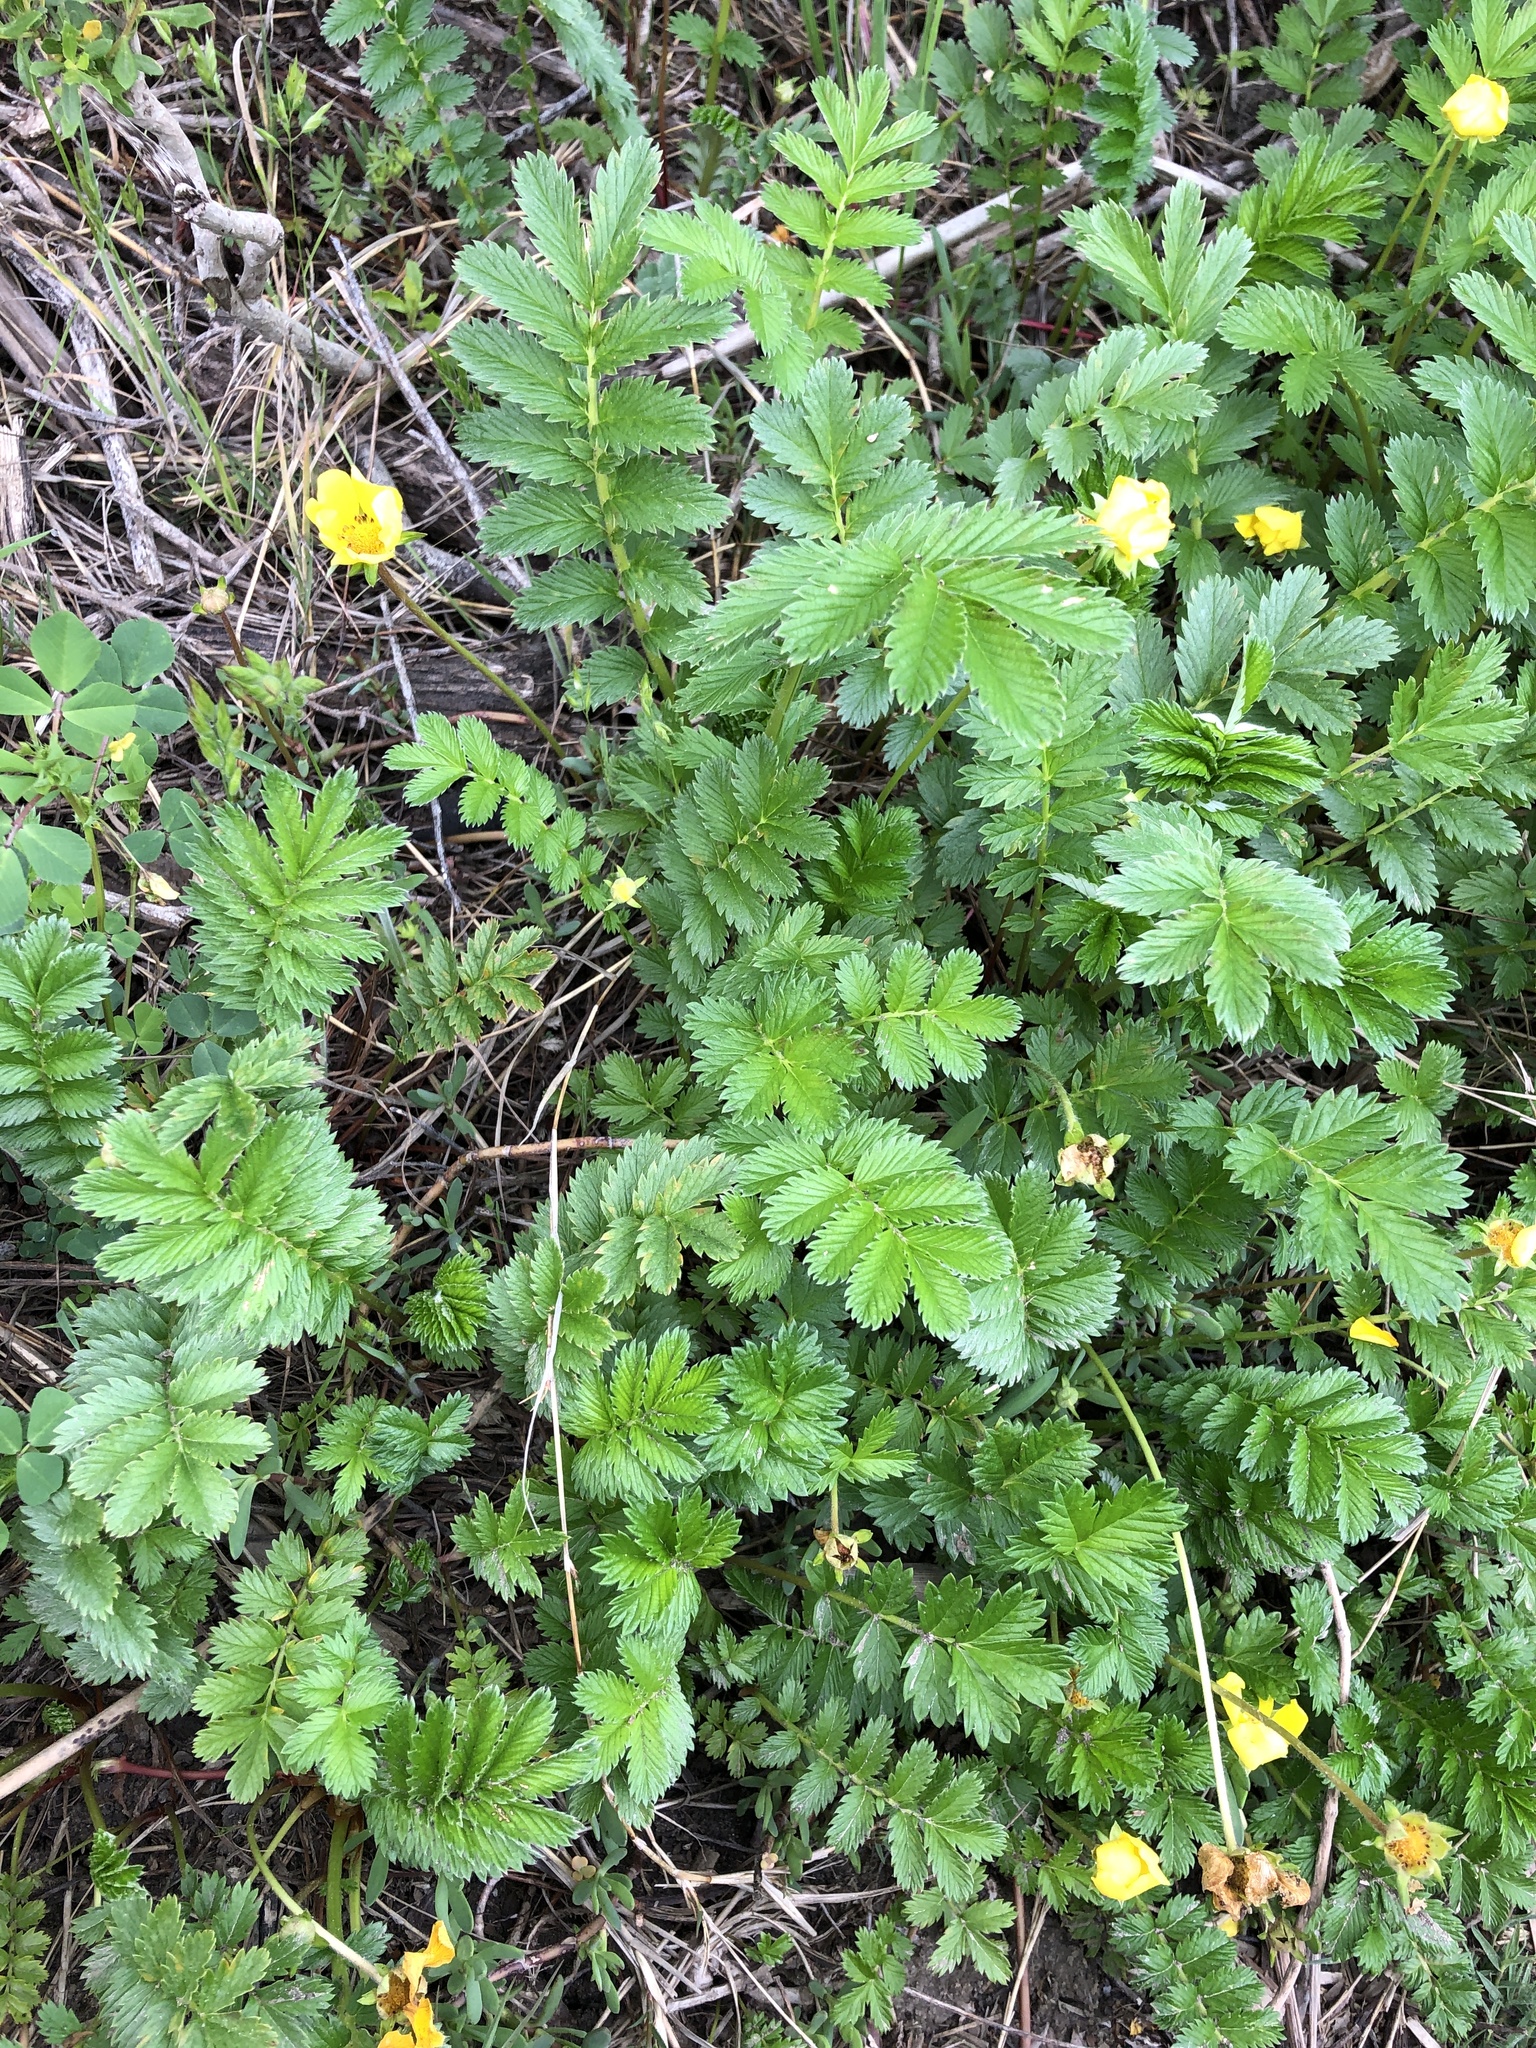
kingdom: Plantae
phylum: Tracheophyta
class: Magnoliopsida
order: Rosales
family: Rosaceae
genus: Argentina
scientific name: Argentina anserina
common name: Common silverweed
